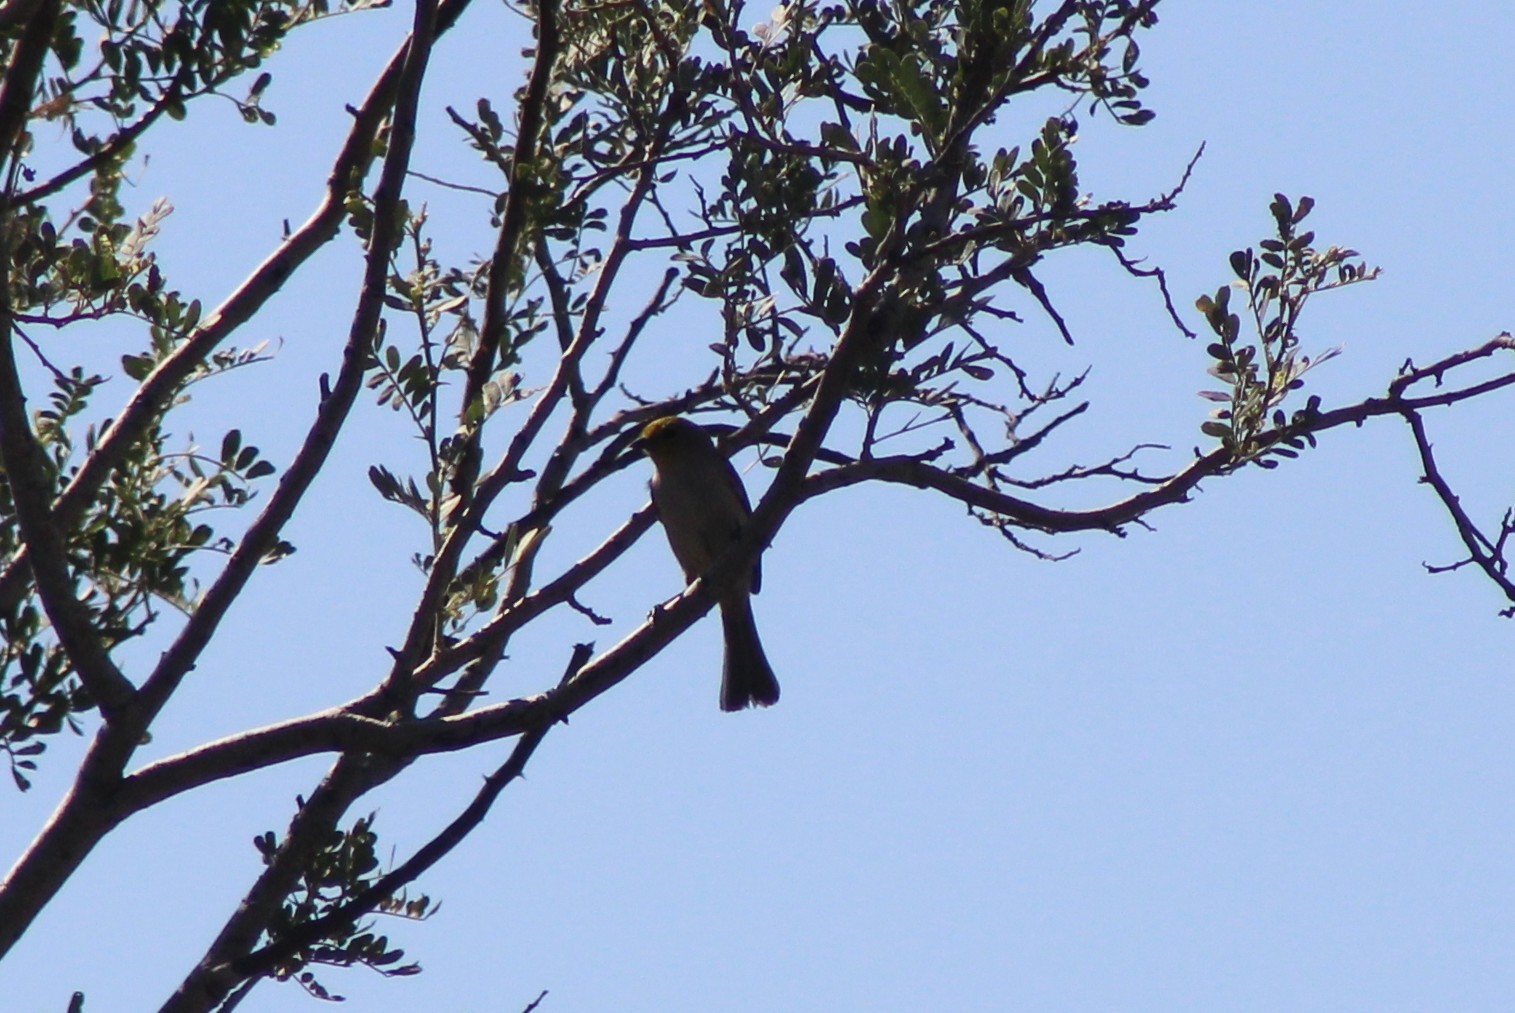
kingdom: Animalia
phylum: Chordata
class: Aves
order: Passeriformes
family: Remizidae
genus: Auriparus
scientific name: Auriparus flaviceps
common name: Verdin
